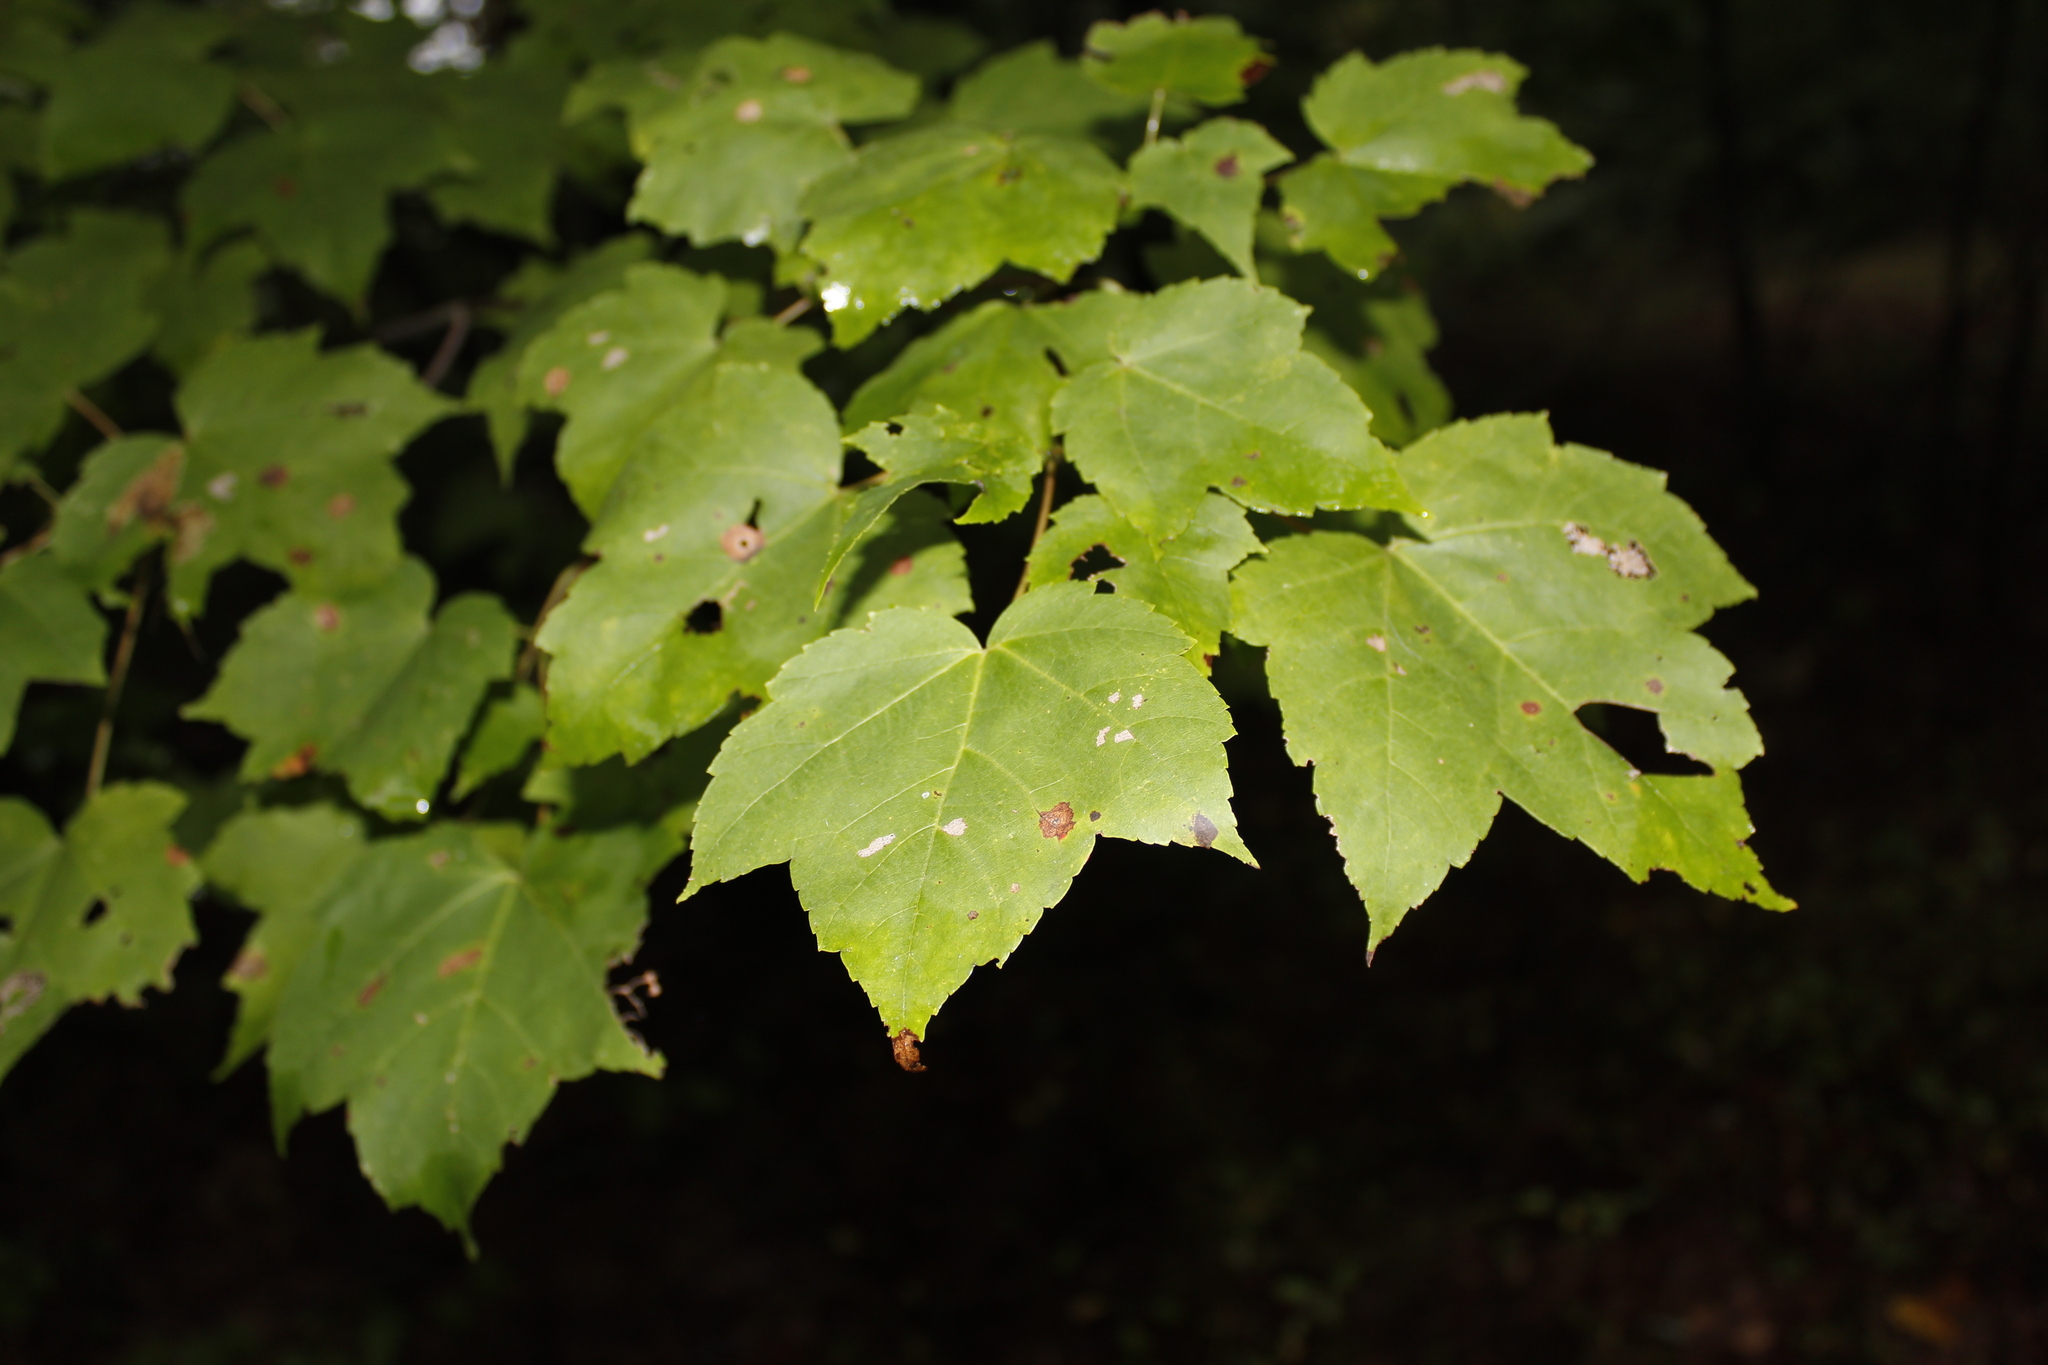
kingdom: Plantae
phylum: Tracheophyta
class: Magnoliopsida
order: Sapindales
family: Sapindaceae
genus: Acer
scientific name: Acer rubrum
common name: Red maple
